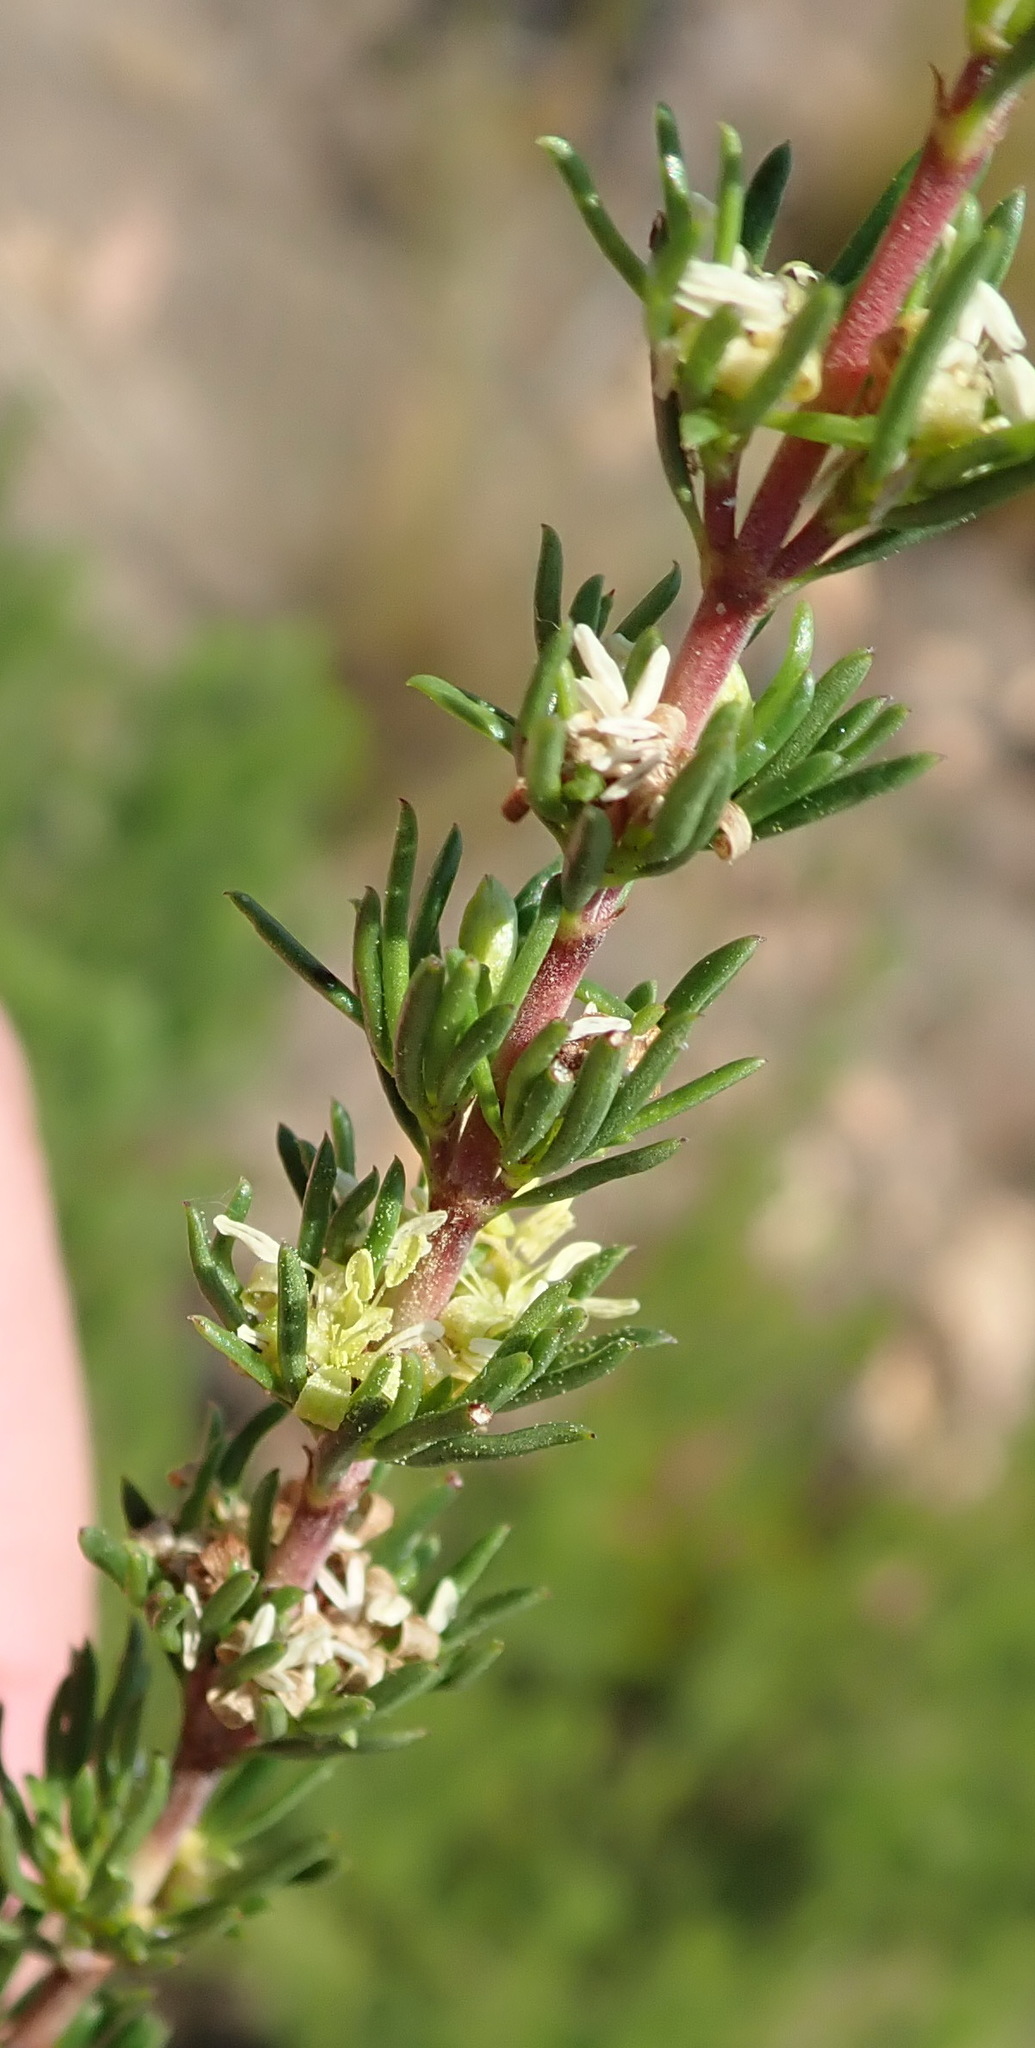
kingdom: Plantae
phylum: Tracheophyta
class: Magnoliopsida
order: Gentianales
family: Rubiaceae
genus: Anthospermum
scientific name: Anthospermum aethiopicum
